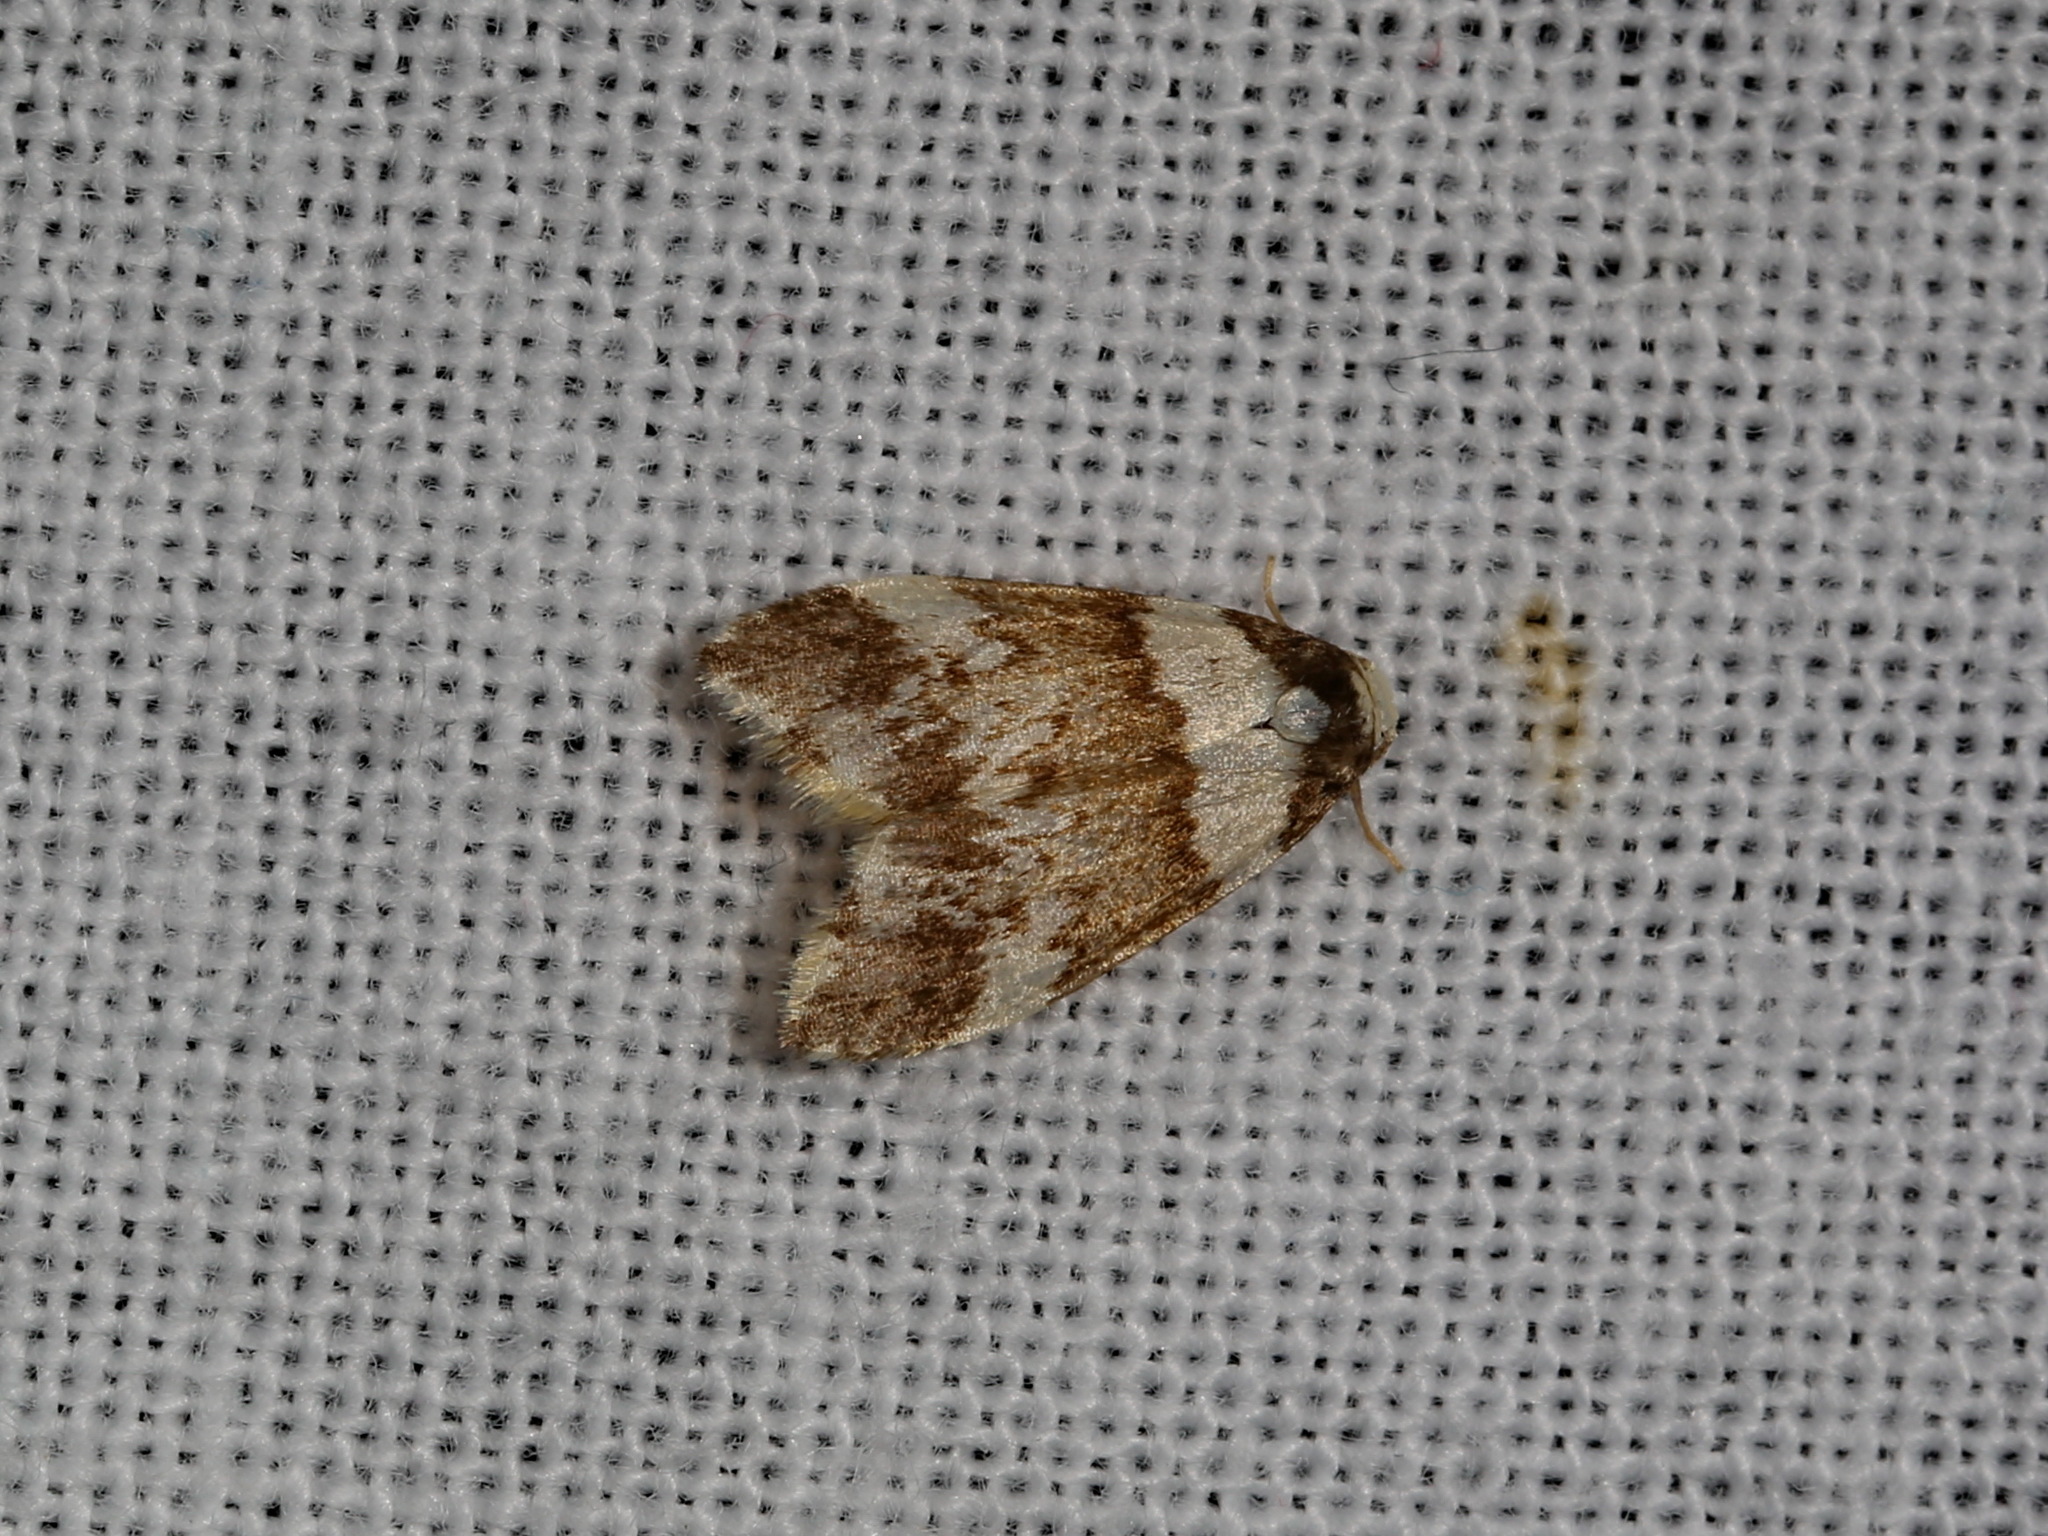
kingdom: Animalia
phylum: Arthropoda
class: Insecta
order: Lepidoptera
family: Erebidae
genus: Halone
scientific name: Halone pteridaula
